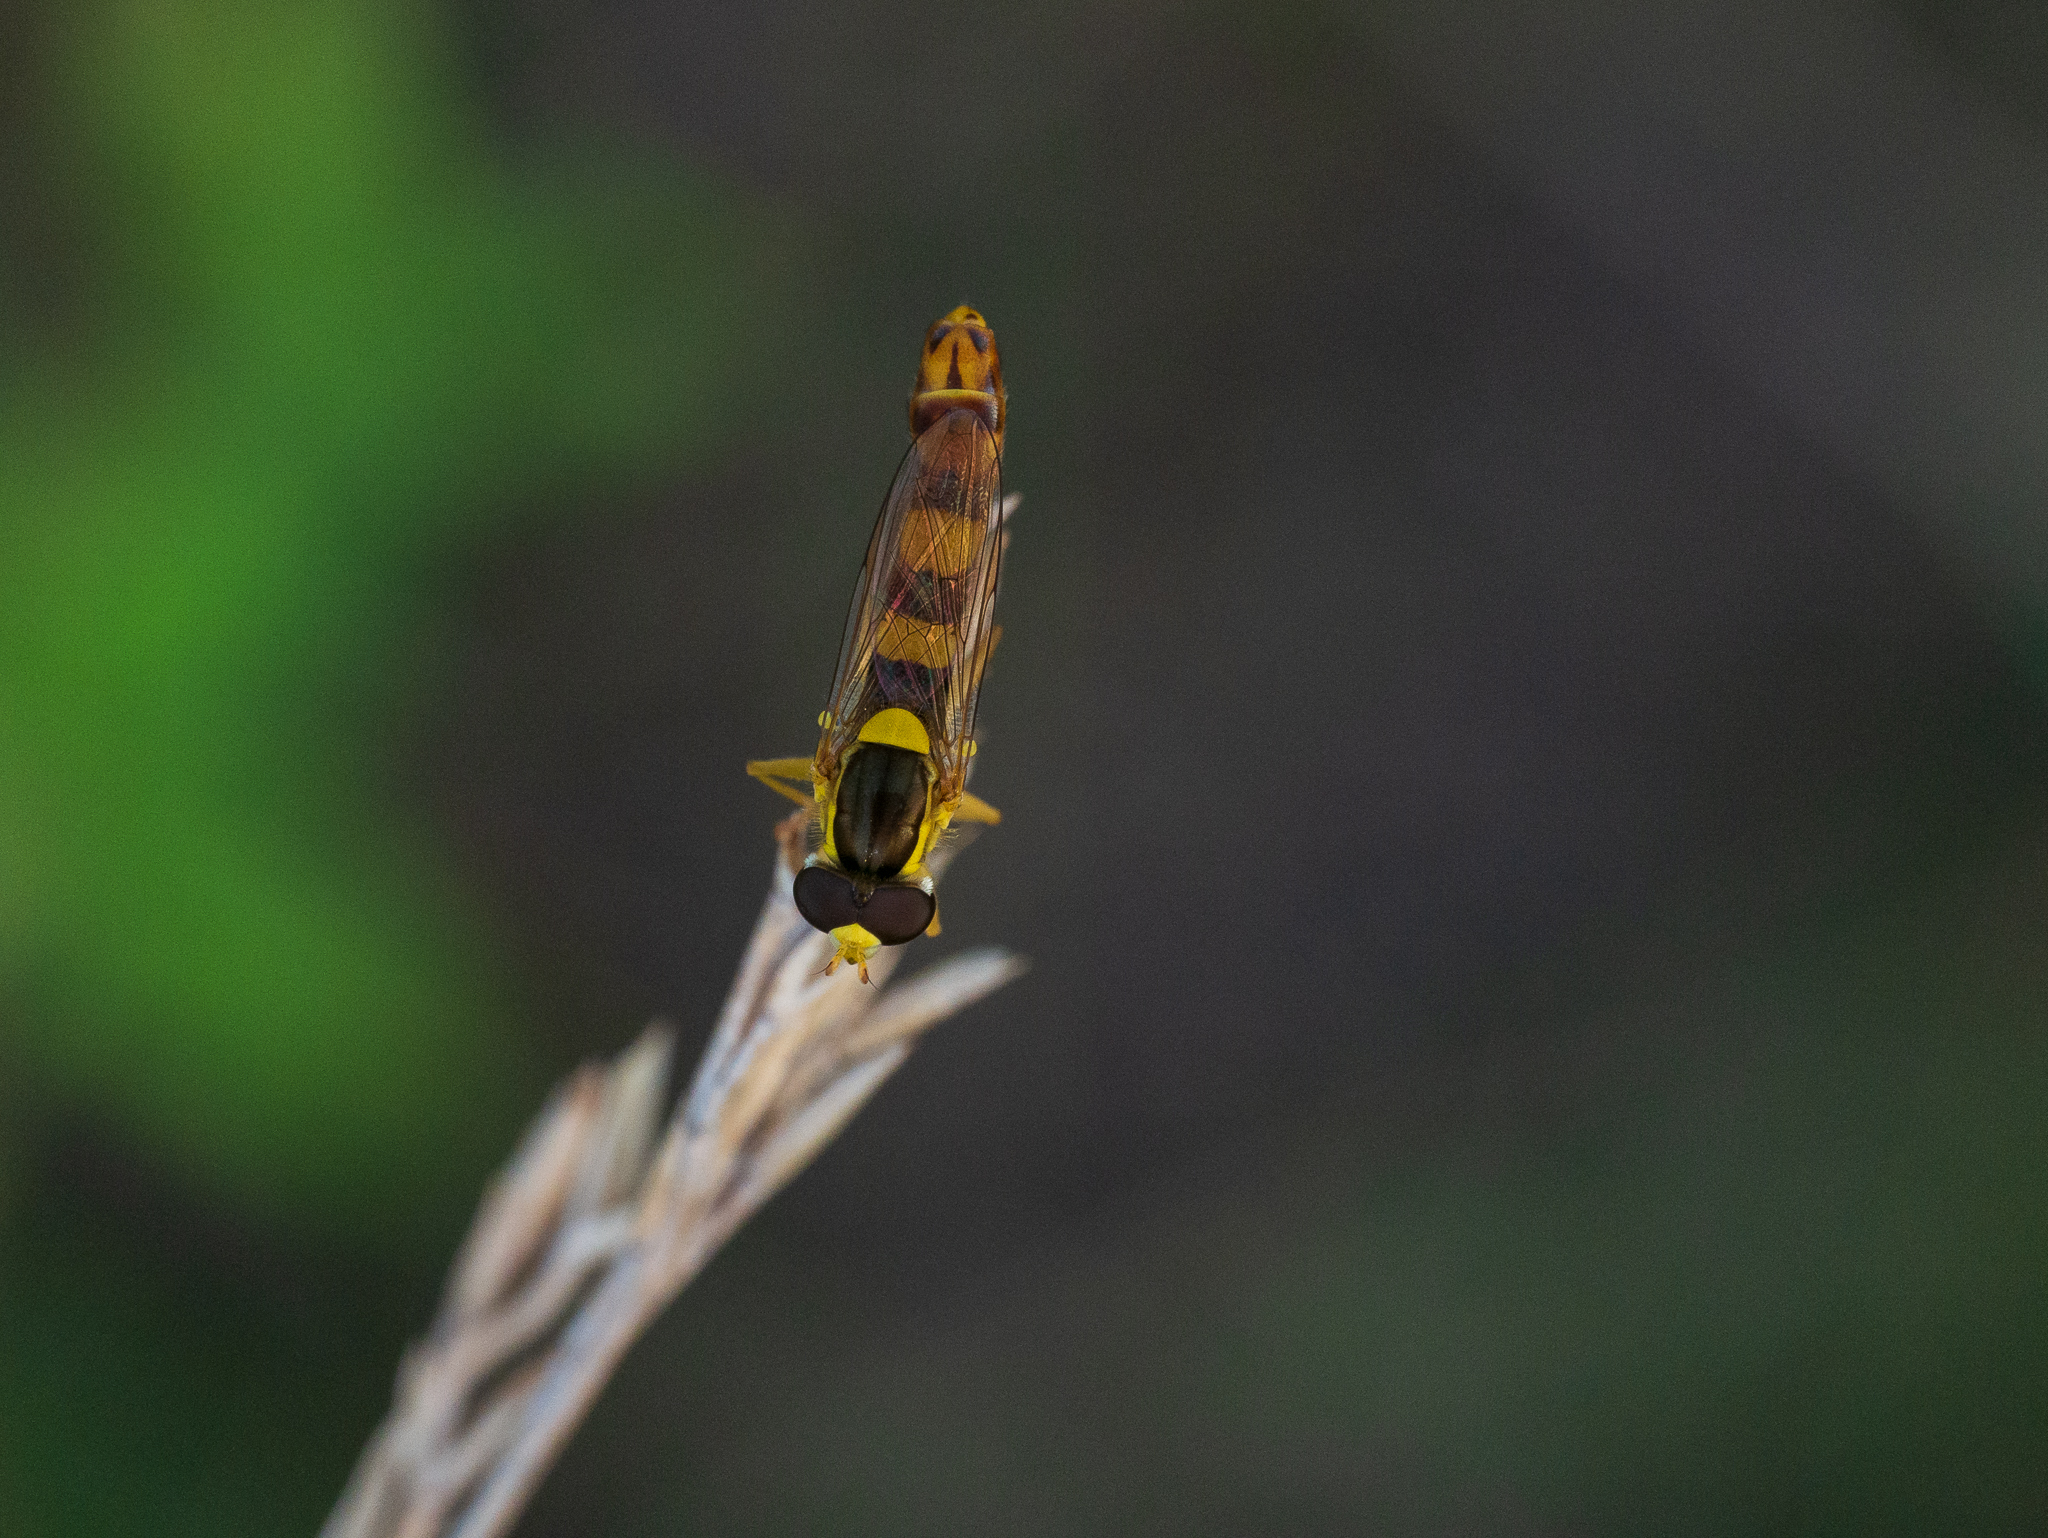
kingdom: Animalia
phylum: Arthropoda
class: Insecta
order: Diptera
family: Syrphidae
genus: Sphaerophoria
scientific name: Sphaerophoria scripta
